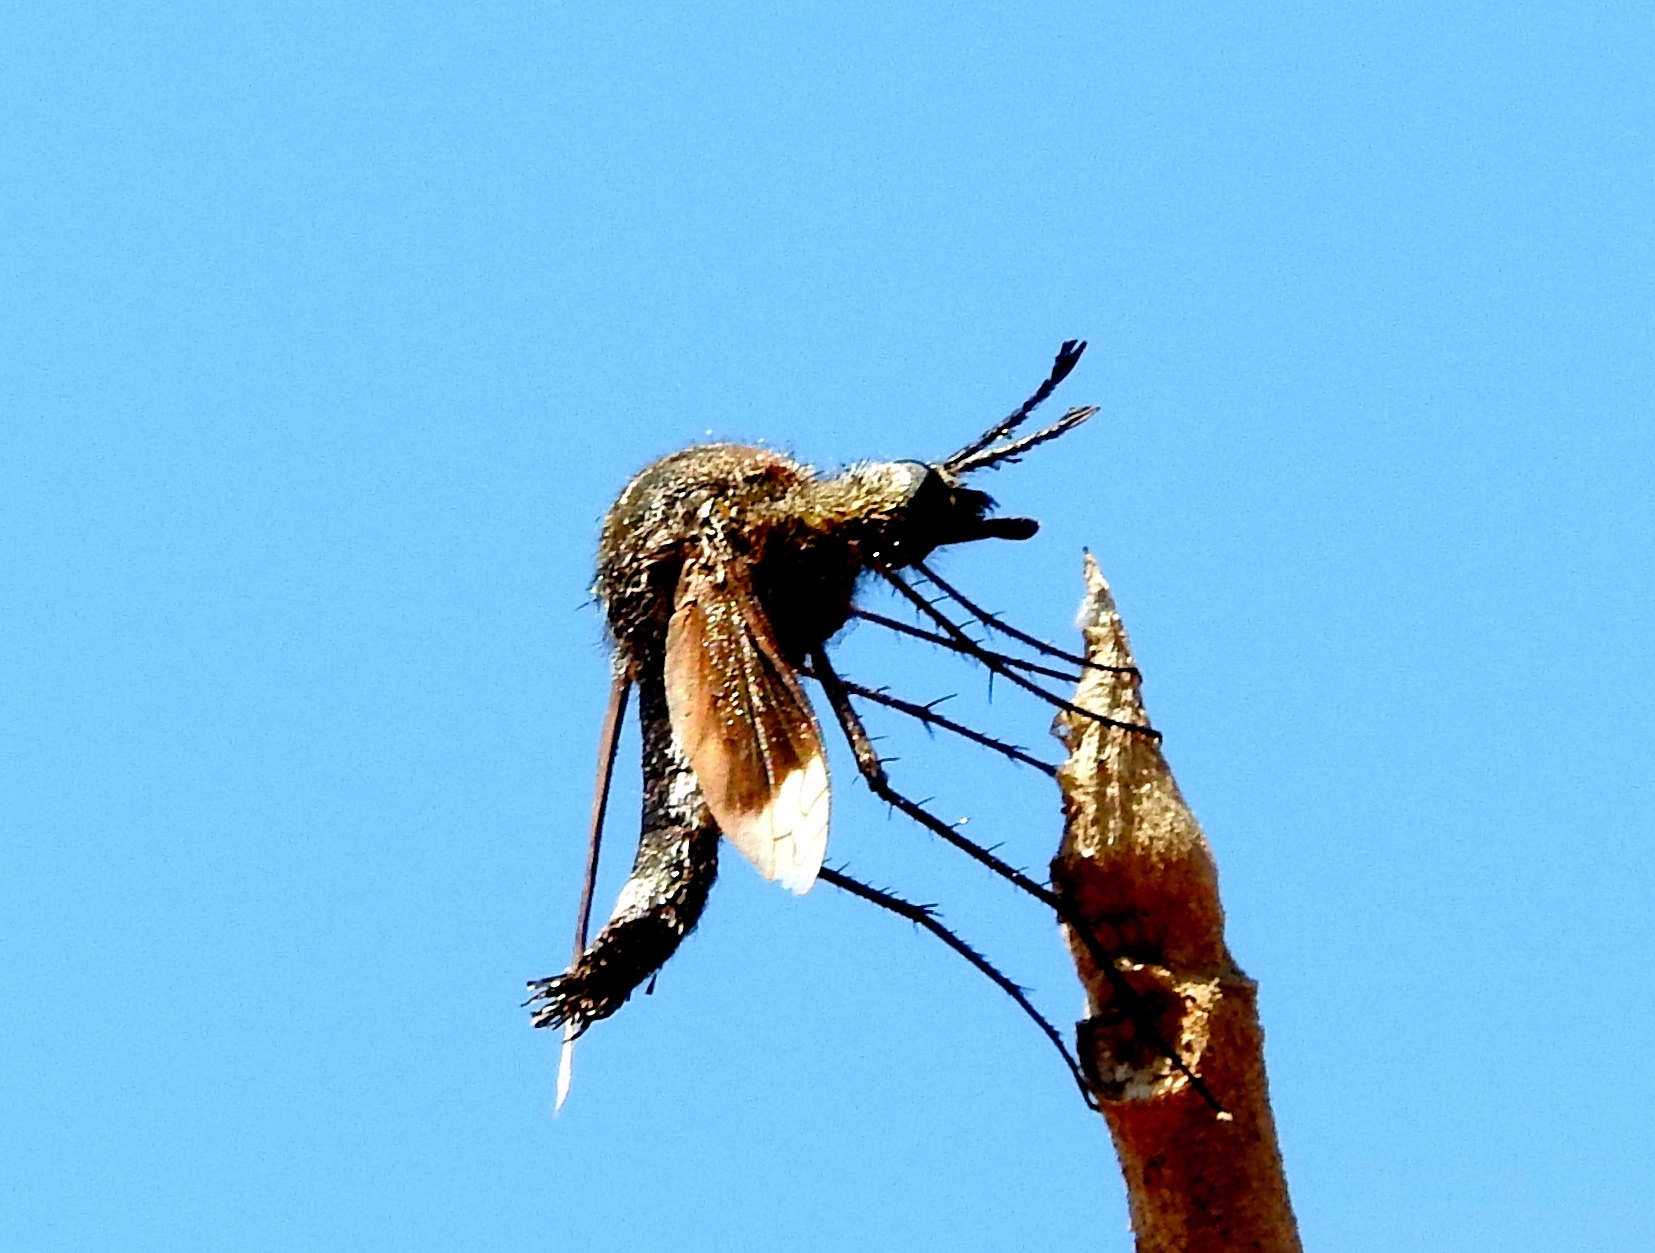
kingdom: Animalia
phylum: Arthropoda
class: Insecta
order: Diptera
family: Bombyliidae
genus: Lepidophora
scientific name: Lepidophora vetusta
